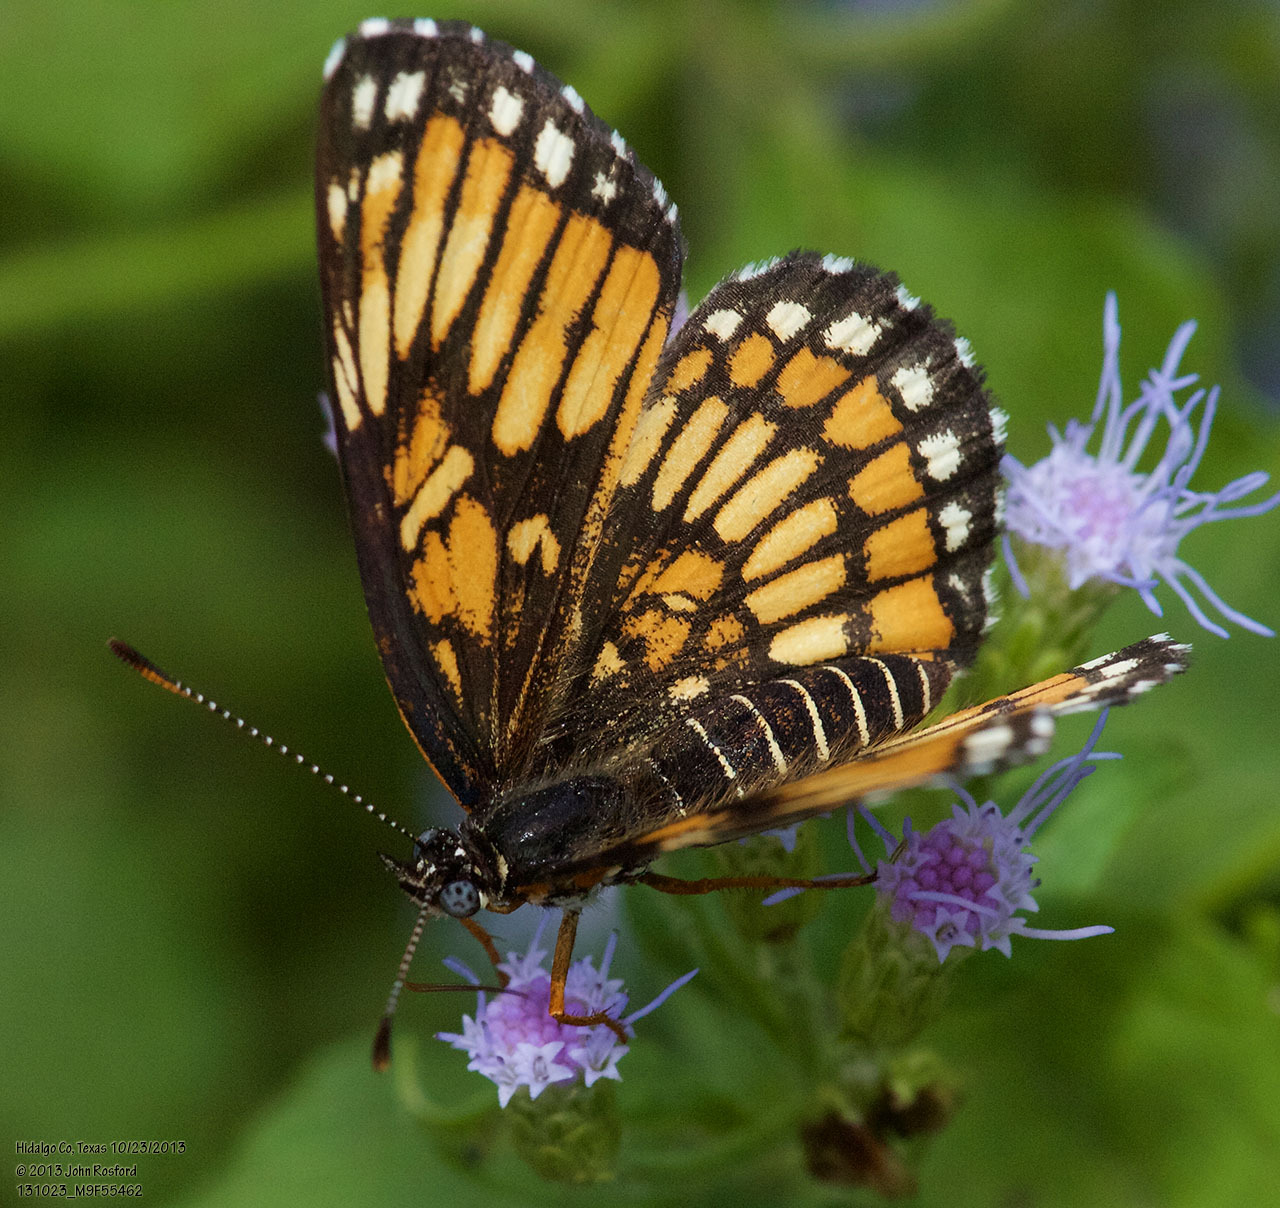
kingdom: Animalia
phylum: Arthropoda
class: Insecta
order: Lepidoptera
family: Nymphalidae
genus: Thessalia
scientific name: Thessalia theona
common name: Nymphalid moth
